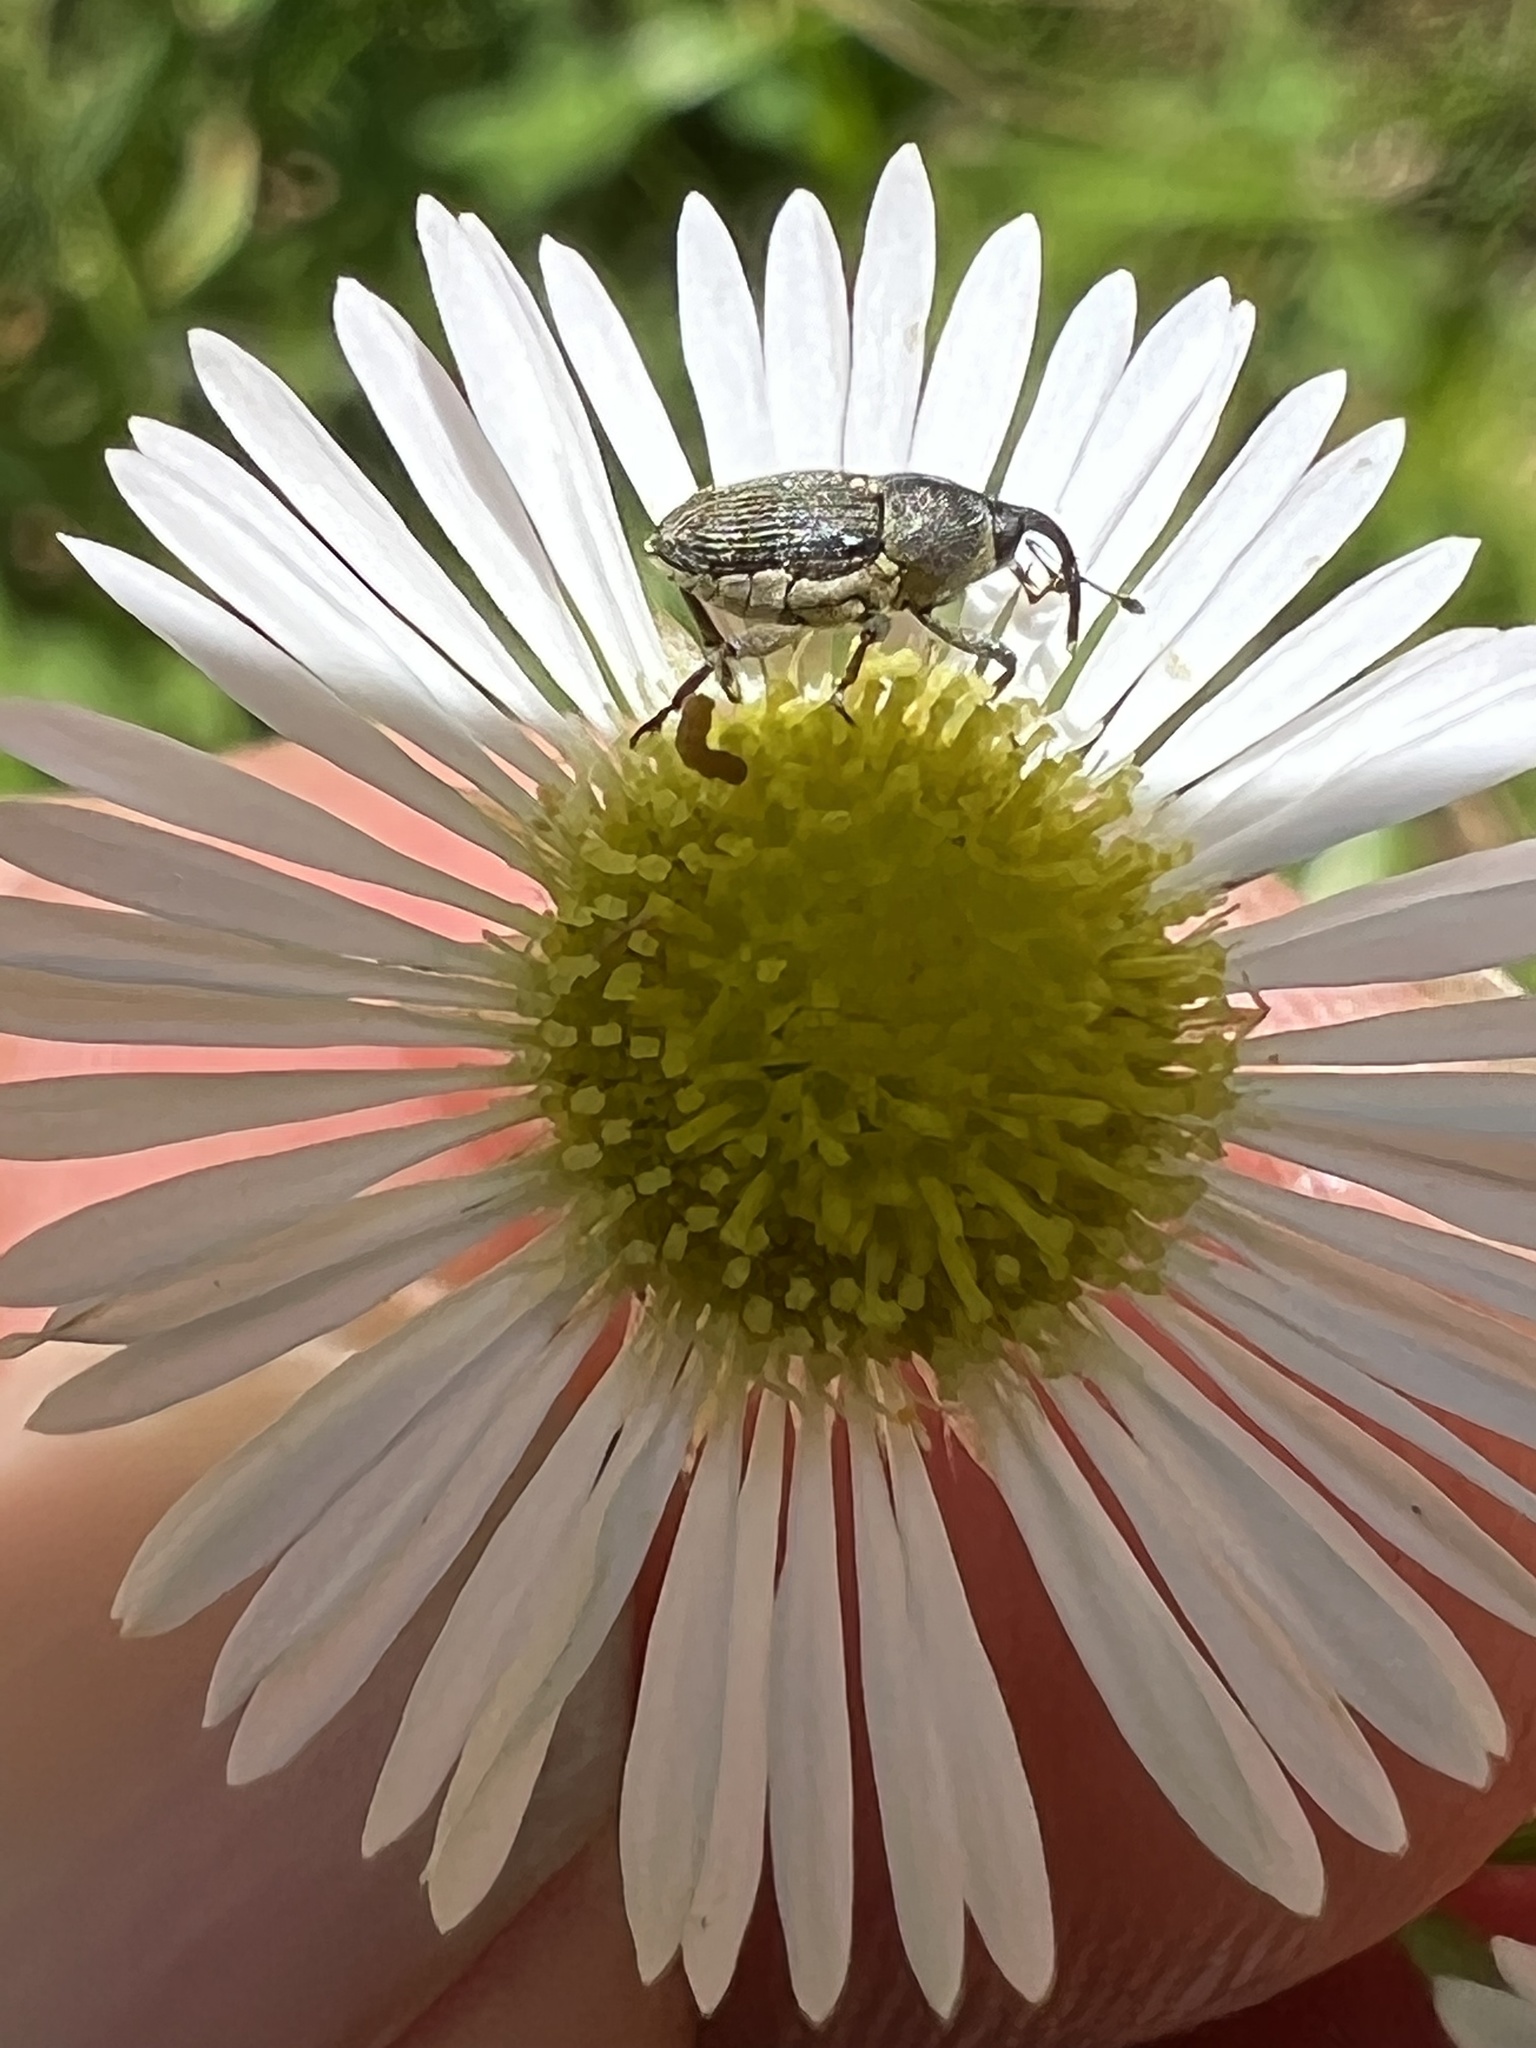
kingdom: Animalia
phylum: Arthropoda
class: Insecta
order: Coleoptera
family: Curculionidae
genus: Odontocorynus
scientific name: Odontocorynus salebrosus
